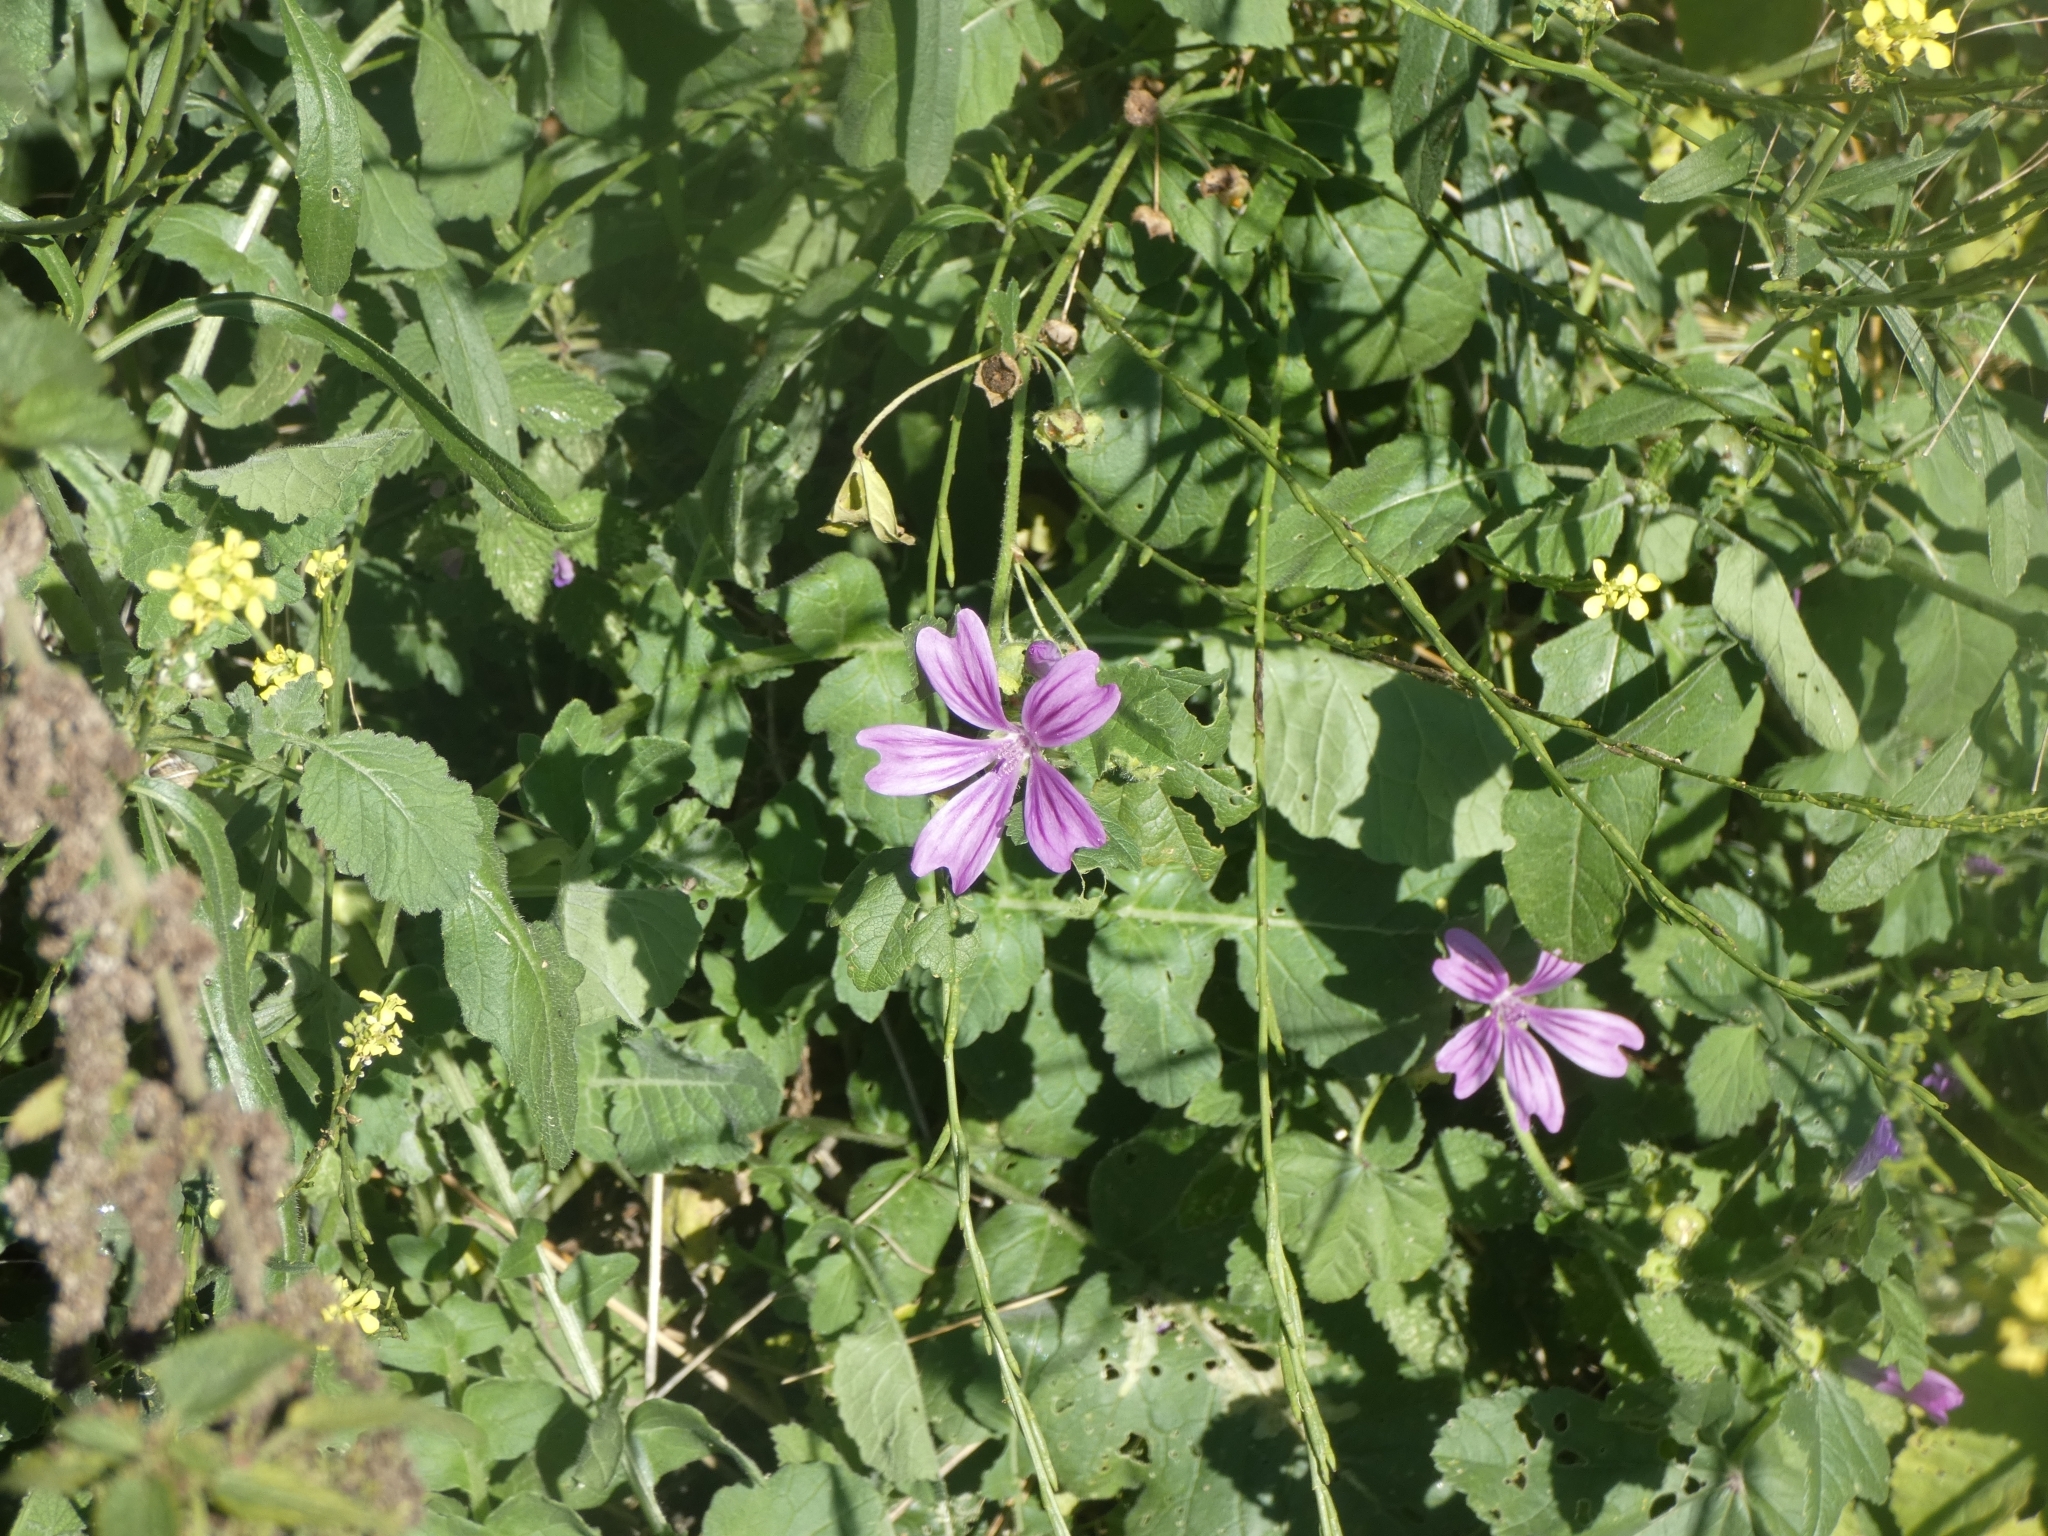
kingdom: Plantae
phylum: Tracheophyta
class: Magnoliopsida
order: Malvales
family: Malvaceae
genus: Malva
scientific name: Malva sylvestris
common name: Common mallow
